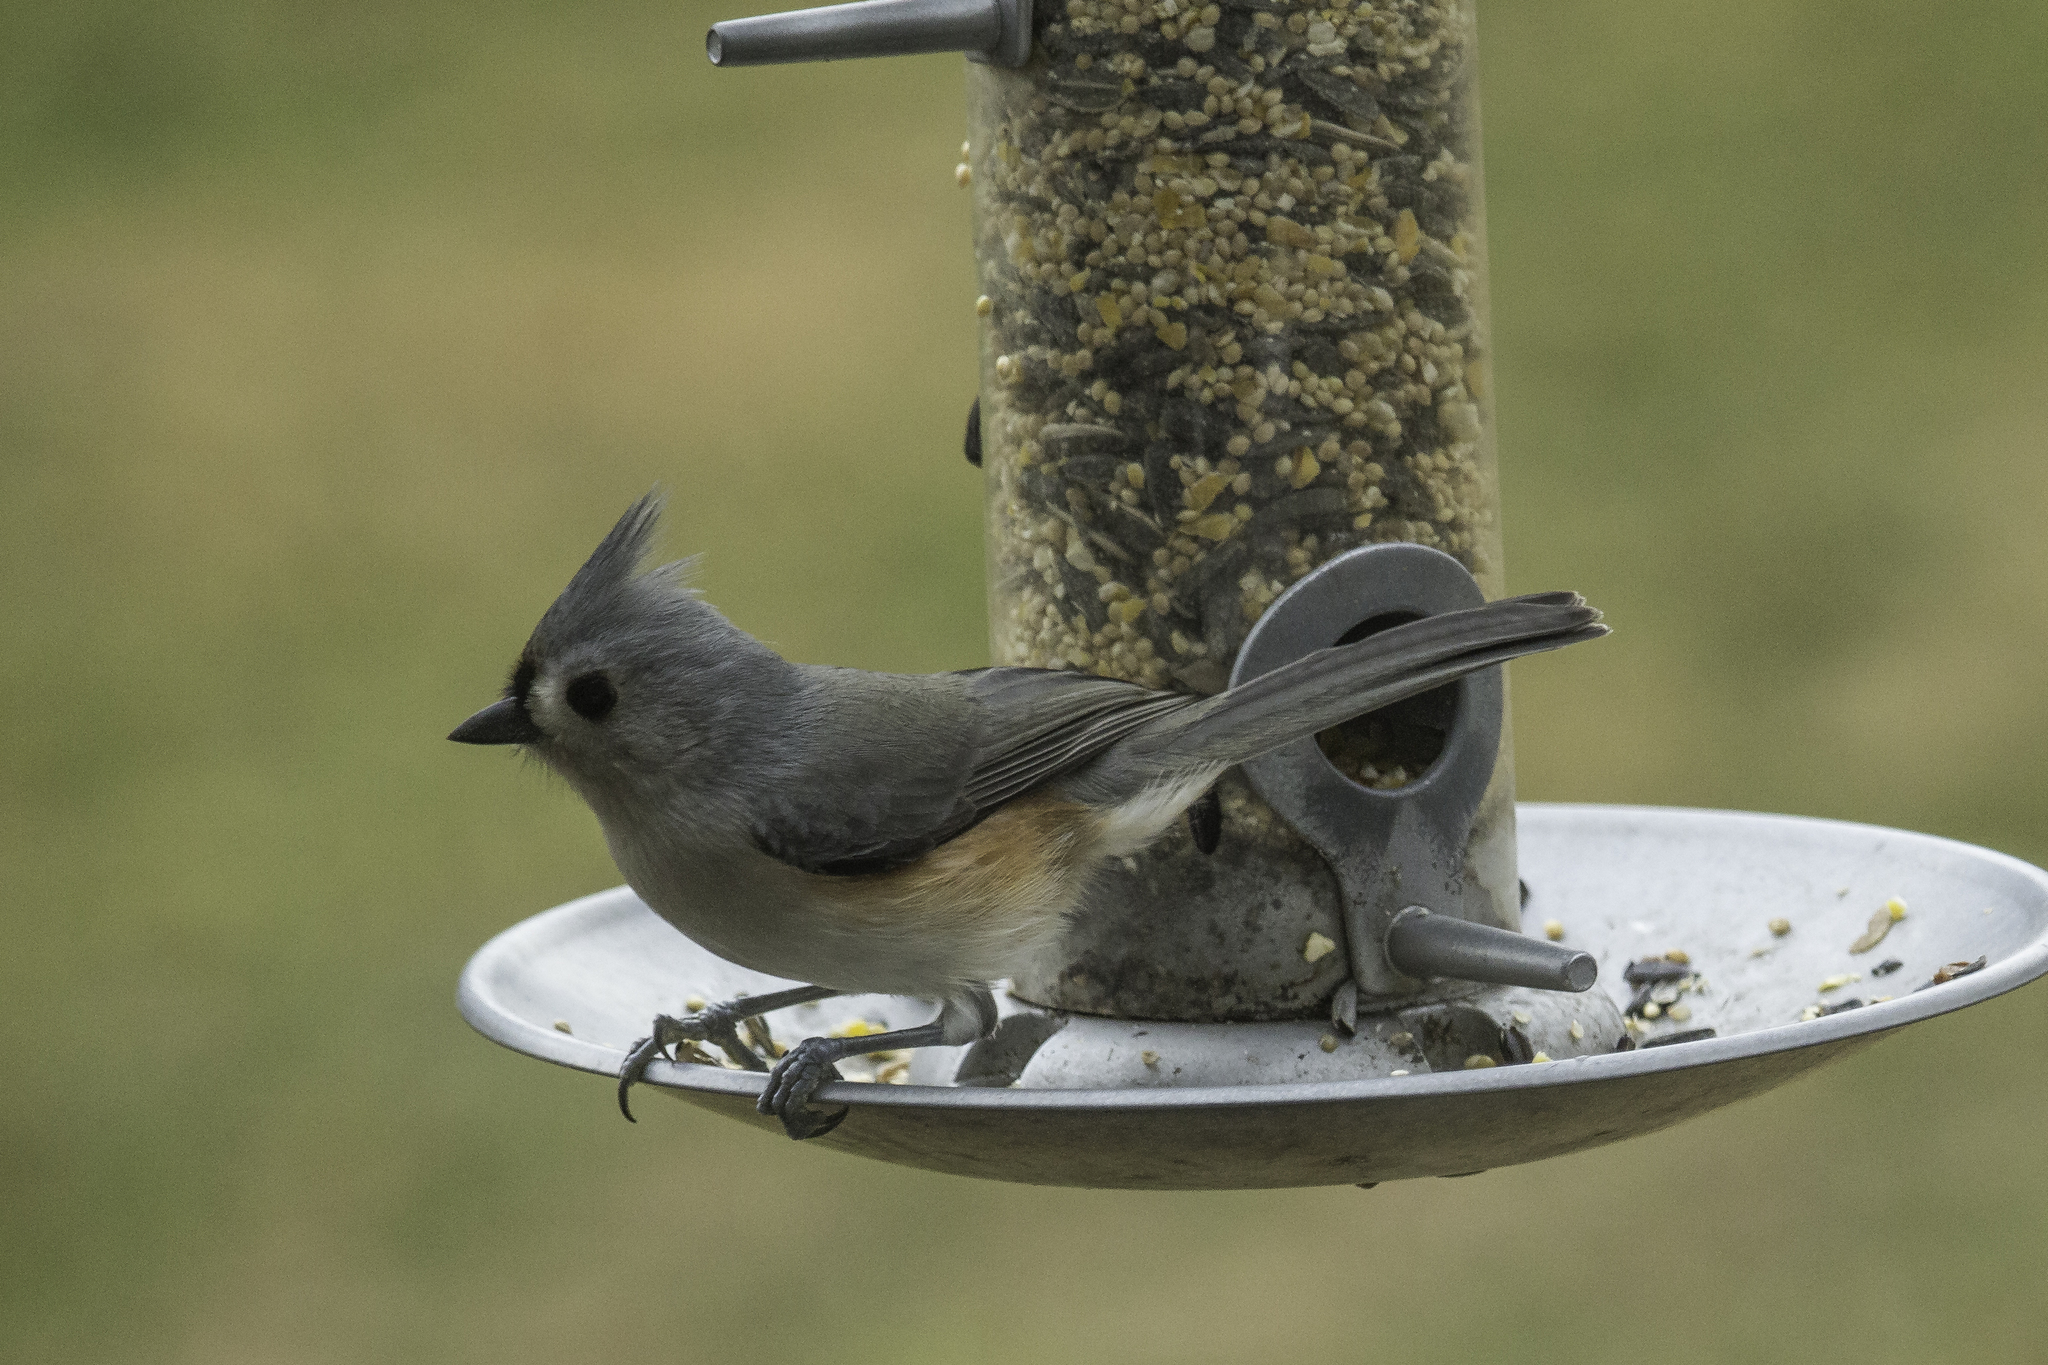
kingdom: Animalia
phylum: Chordata
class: Aves
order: Passeriformes
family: Paridae
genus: Baeolophus
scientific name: Baeolophus bicolor
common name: Tufted titmouse
